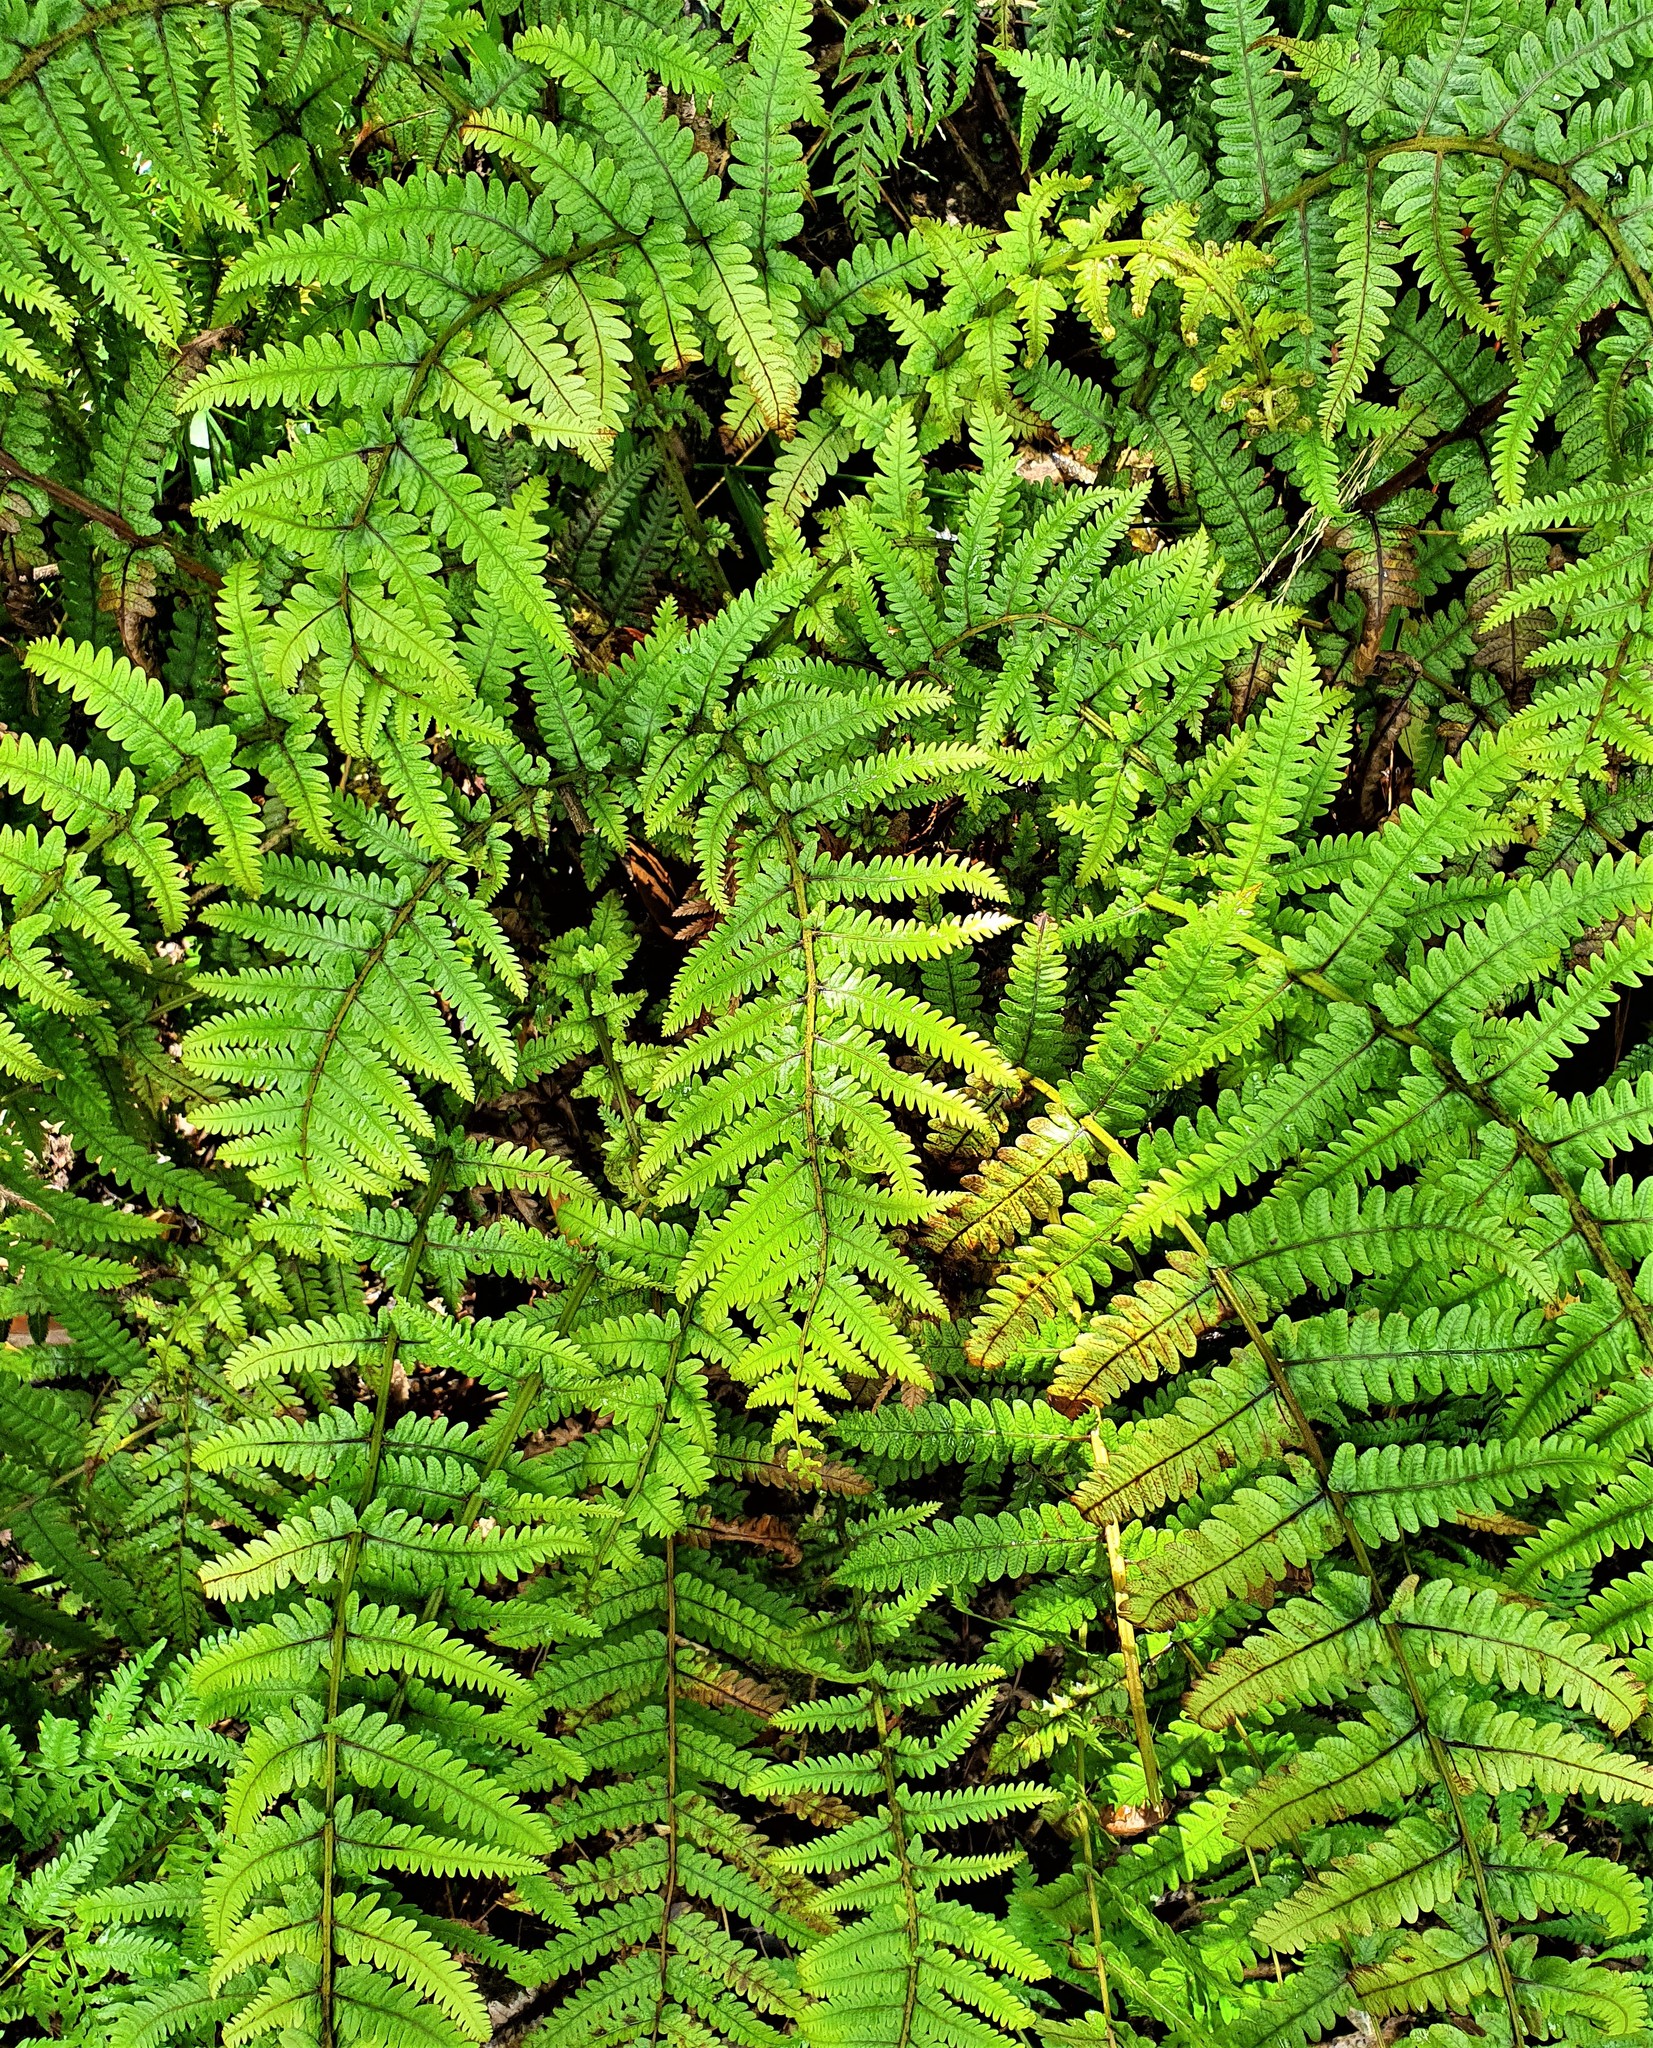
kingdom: Plantae
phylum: Tracheophyta
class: Polypodiopsida
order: Polypodiales
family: Thelypteridaceae
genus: Pakau
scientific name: Pakau pennigera
